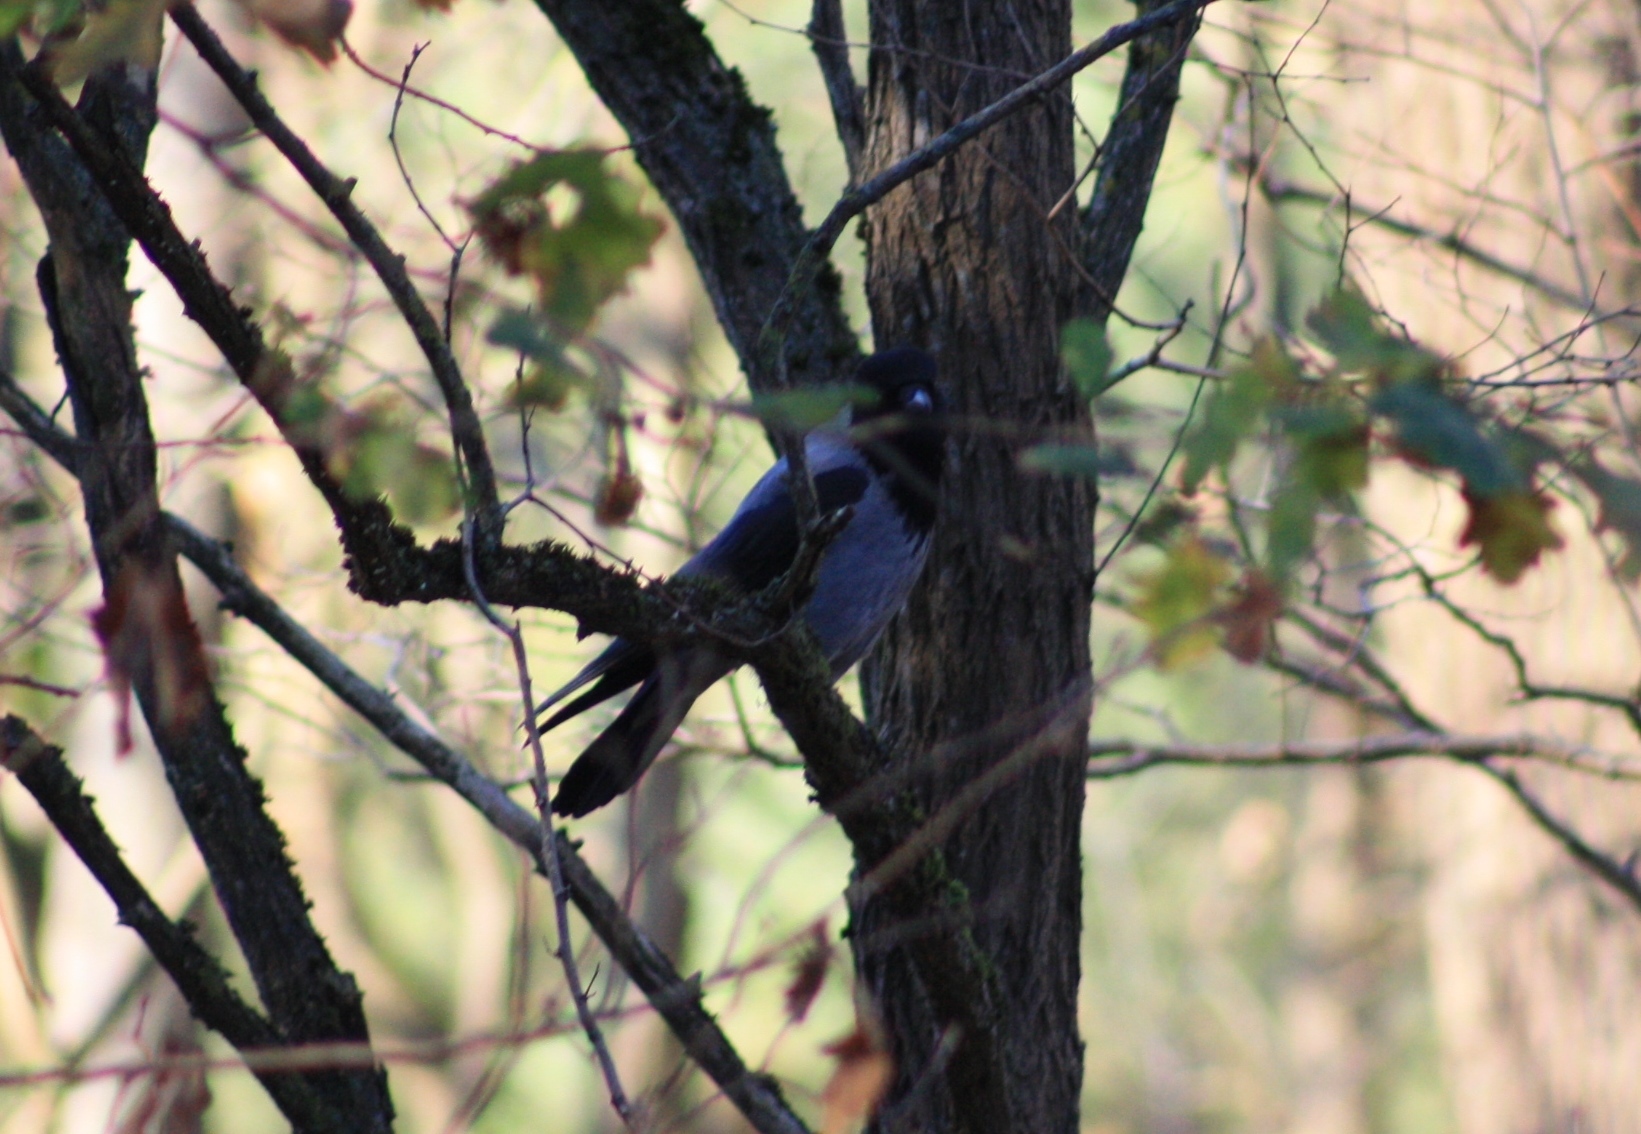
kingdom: Animalia
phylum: Chordata
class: Aves
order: Passeriformes
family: Corvidae
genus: Corvus
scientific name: Corvus cornix
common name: Hooded crow
